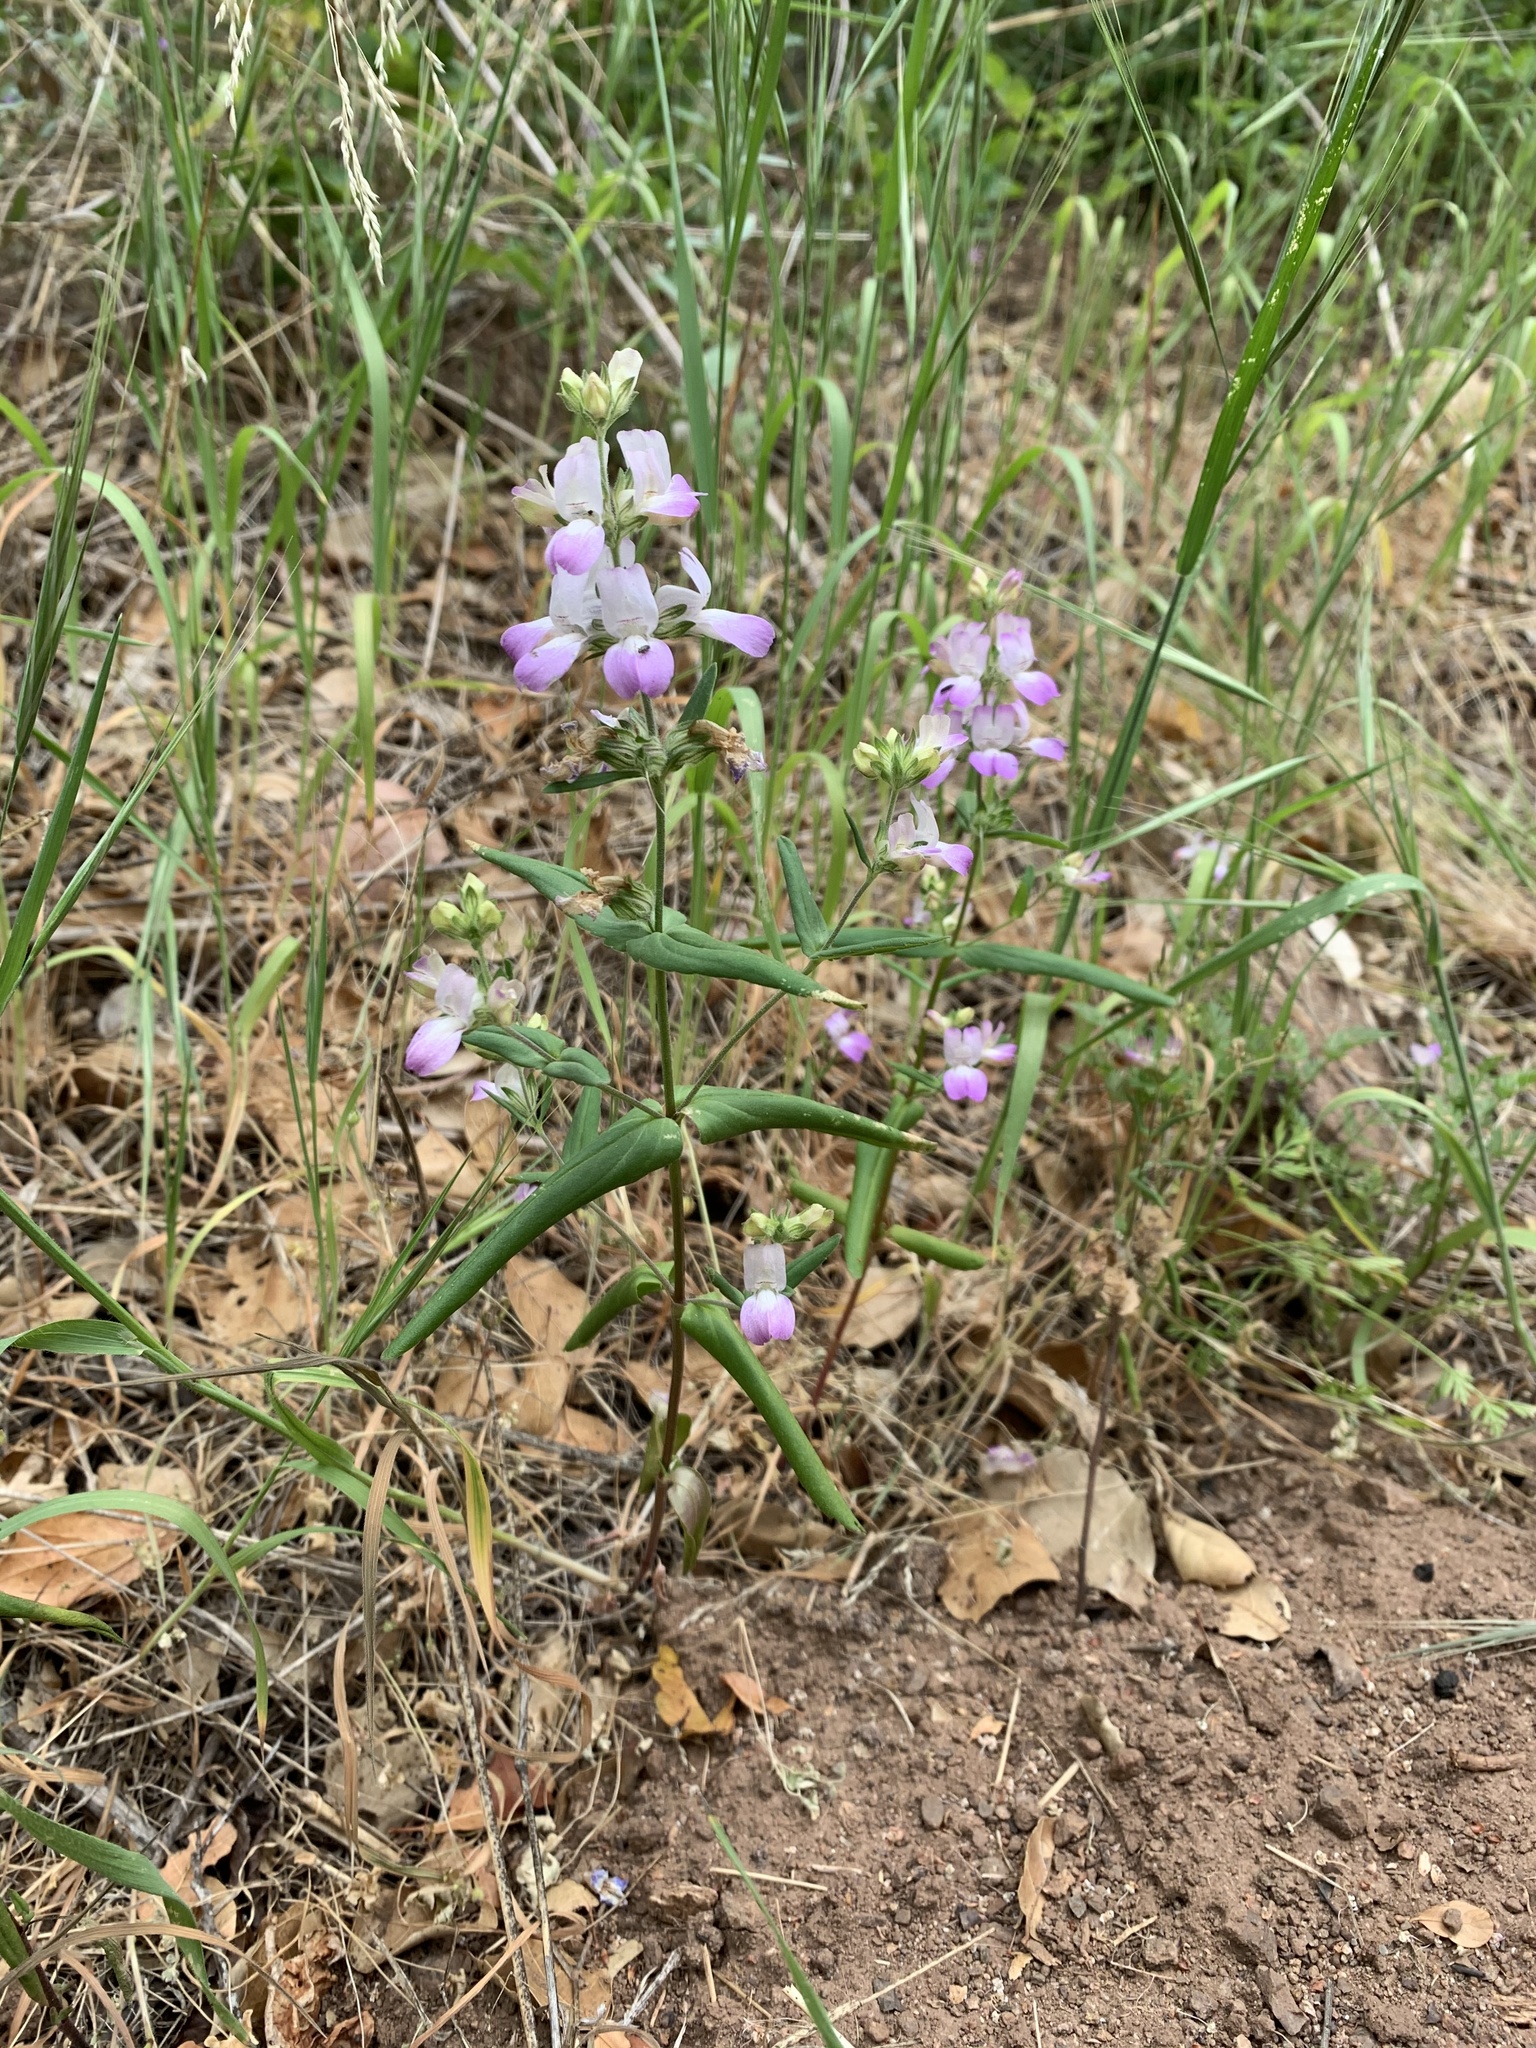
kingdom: Plantae
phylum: Tracheophyta
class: Magnoliopsida
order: Lamiales
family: Plantaginaceae
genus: Collinsia
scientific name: Collinsia heterophylla
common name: Chinese-houses
